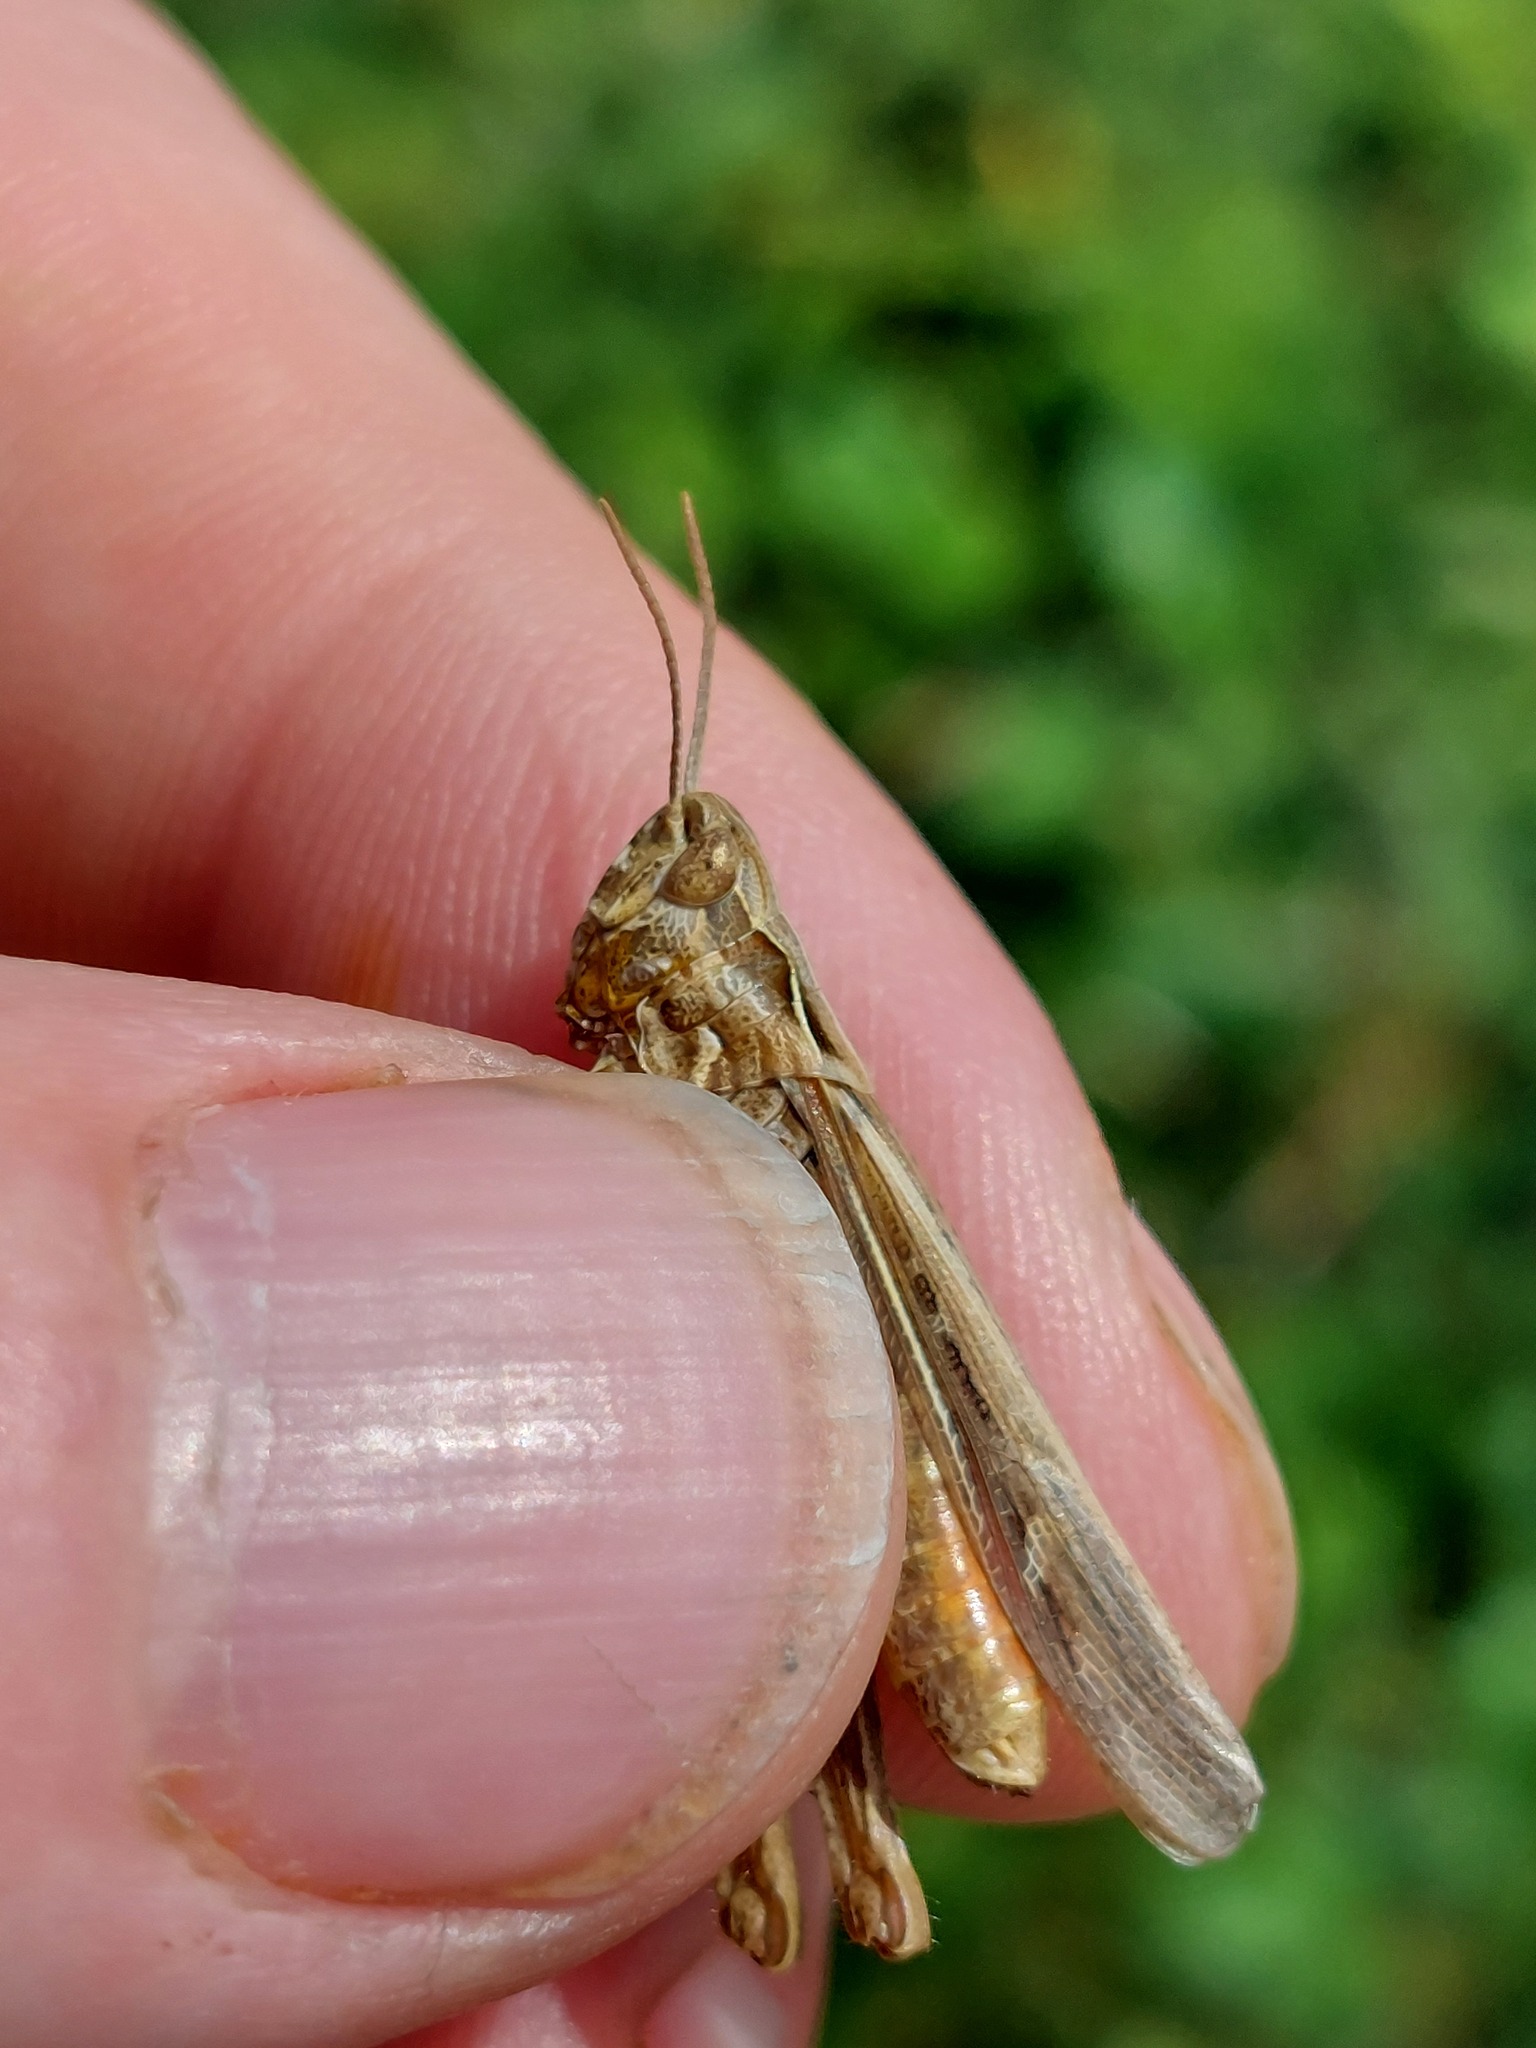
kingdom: Animalia
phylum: Arthropoda
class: Insecta
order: Orthoptera
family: Acrididae
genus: Chorthippus
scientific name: Chorthippus brunneus
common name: Field grasshopper
